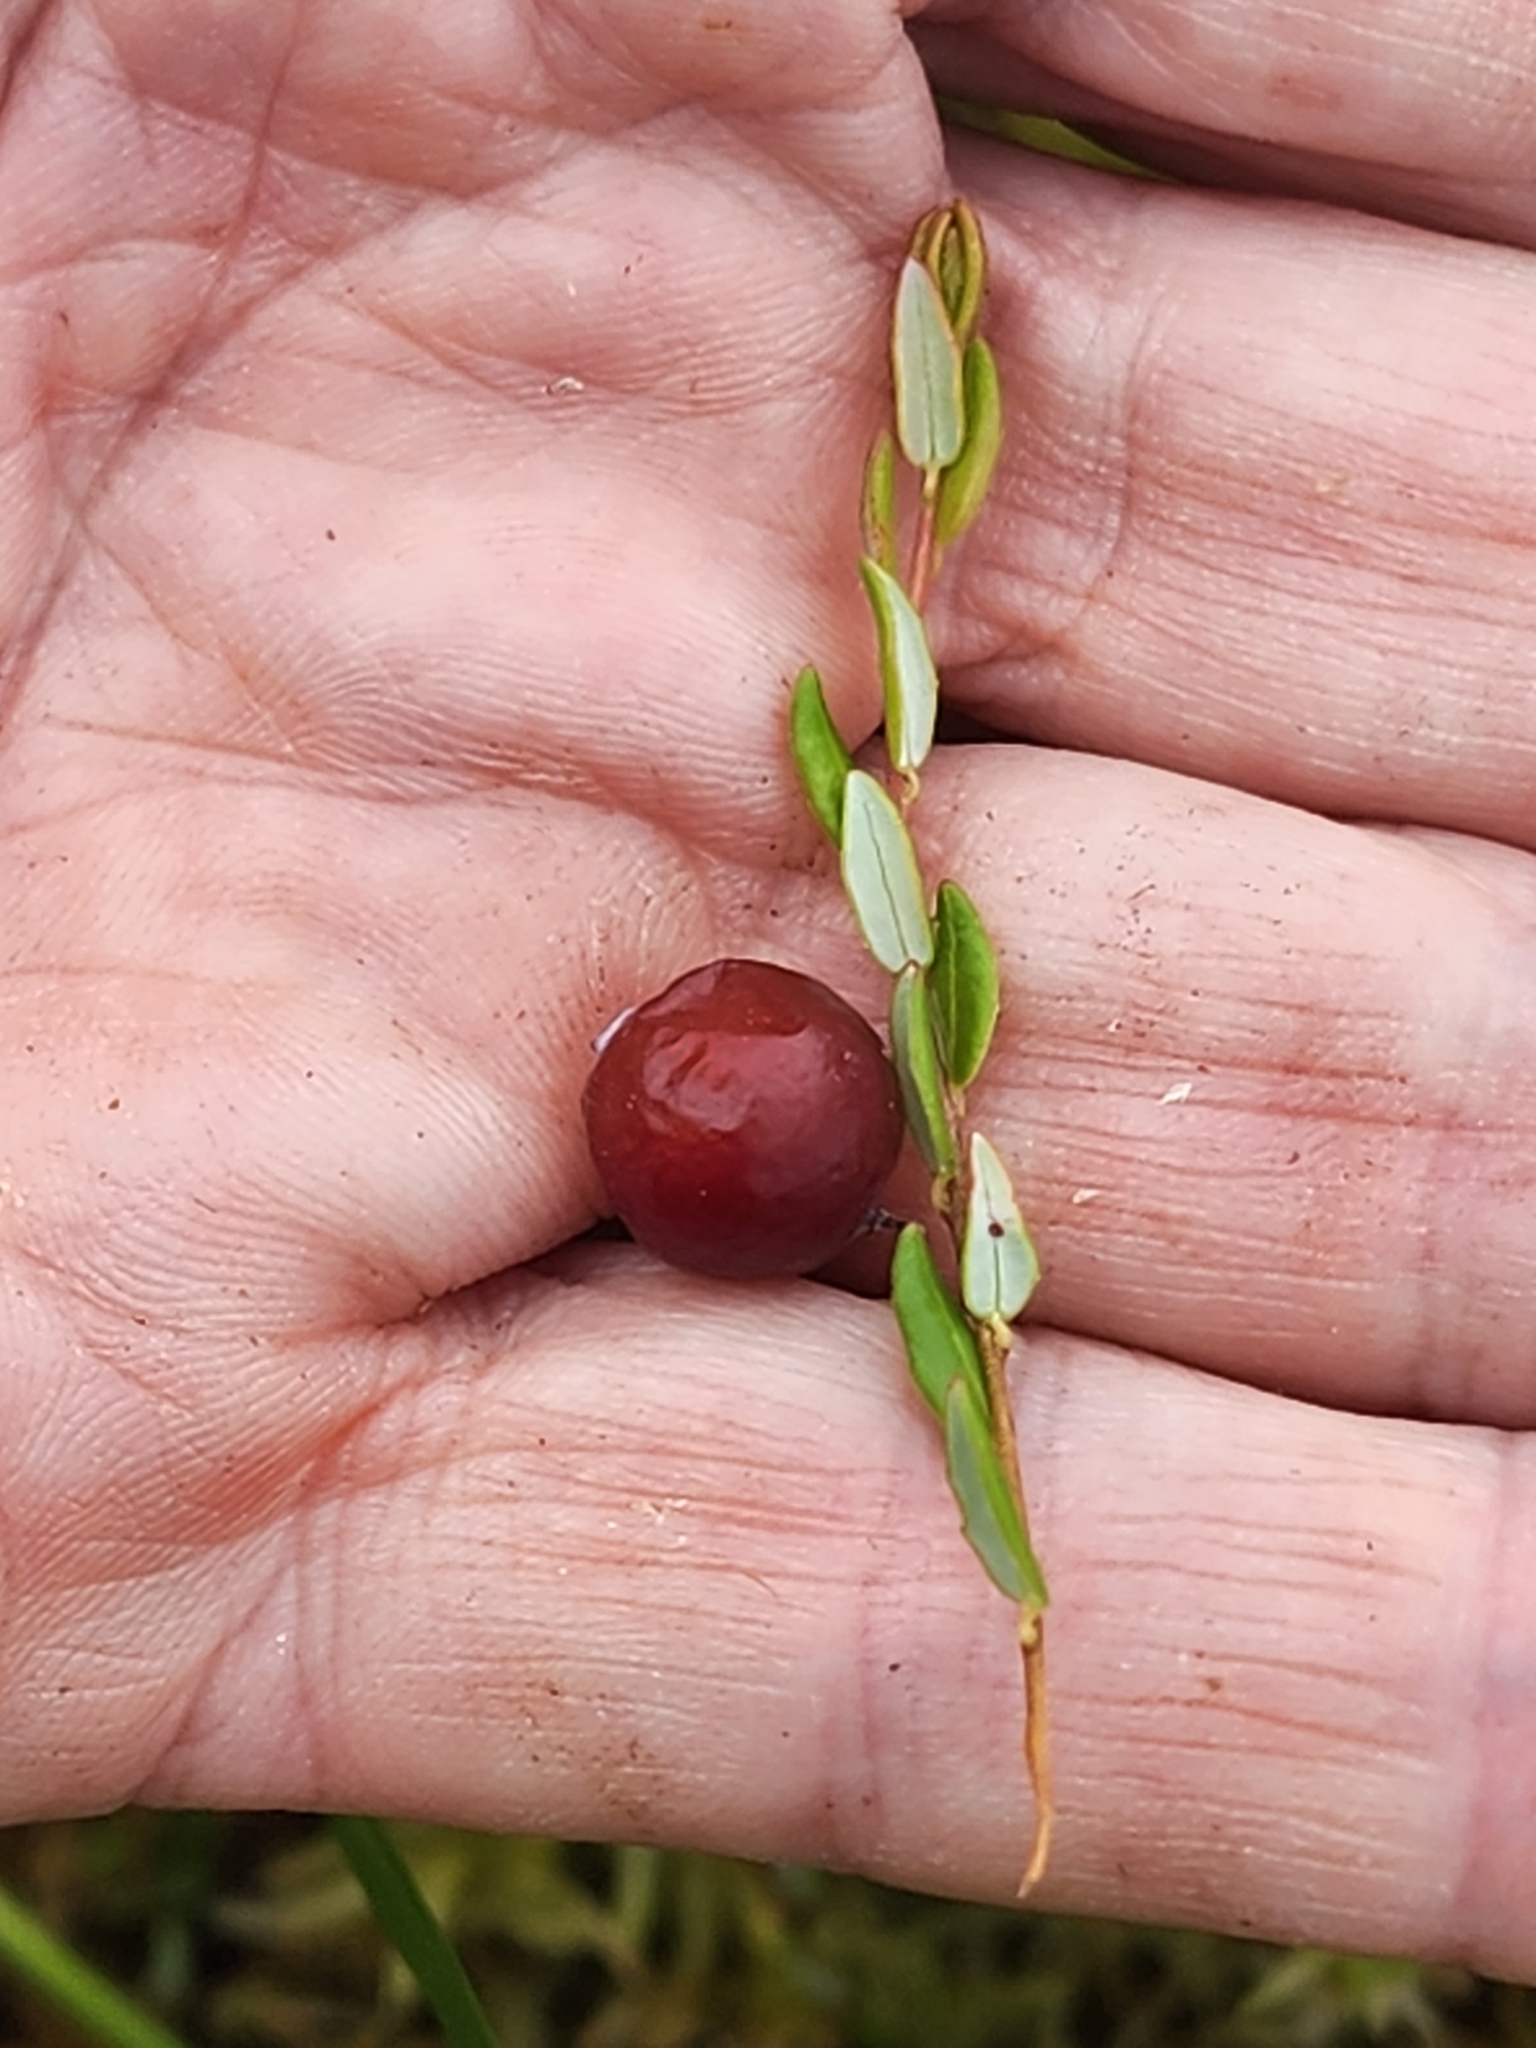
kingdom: Plantae
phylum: Tracheophyta
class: Magnoliopsida
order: Ericales
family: Ericaceae
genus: Vaccinium
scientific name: Vaccinium oxycoccos
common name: Cranberry
